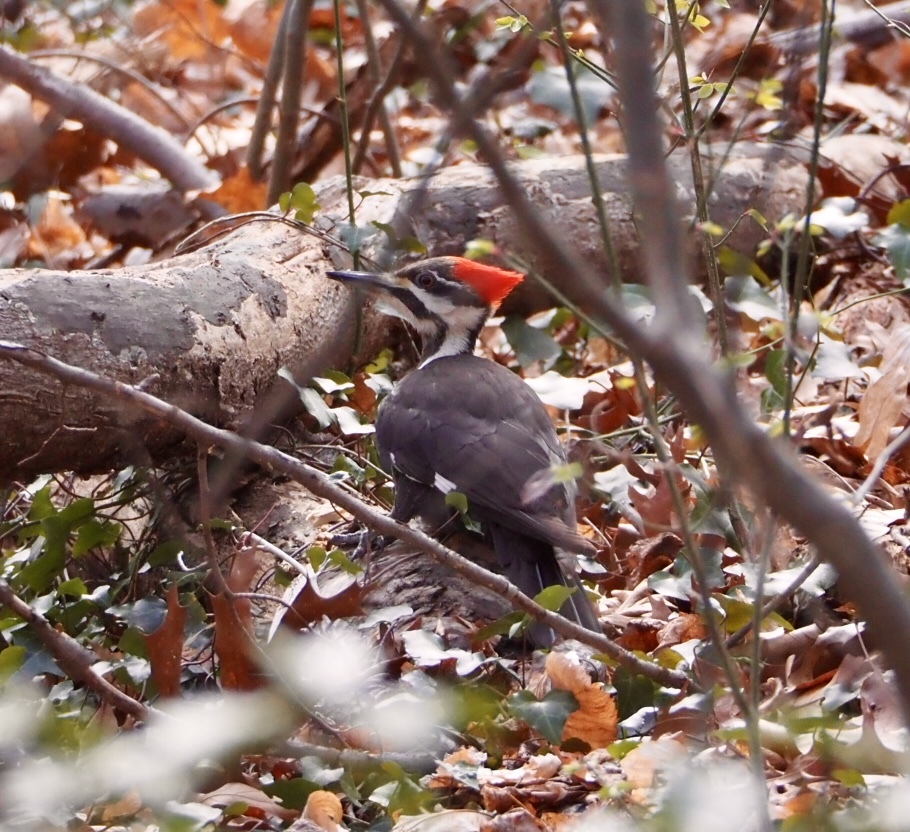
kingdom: Animalia
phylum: Chordata
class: Aves
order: Piciformes
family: Picidae
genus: Dryocopus
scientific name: Dryocopus pileatus
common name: Pileated woodpecker
